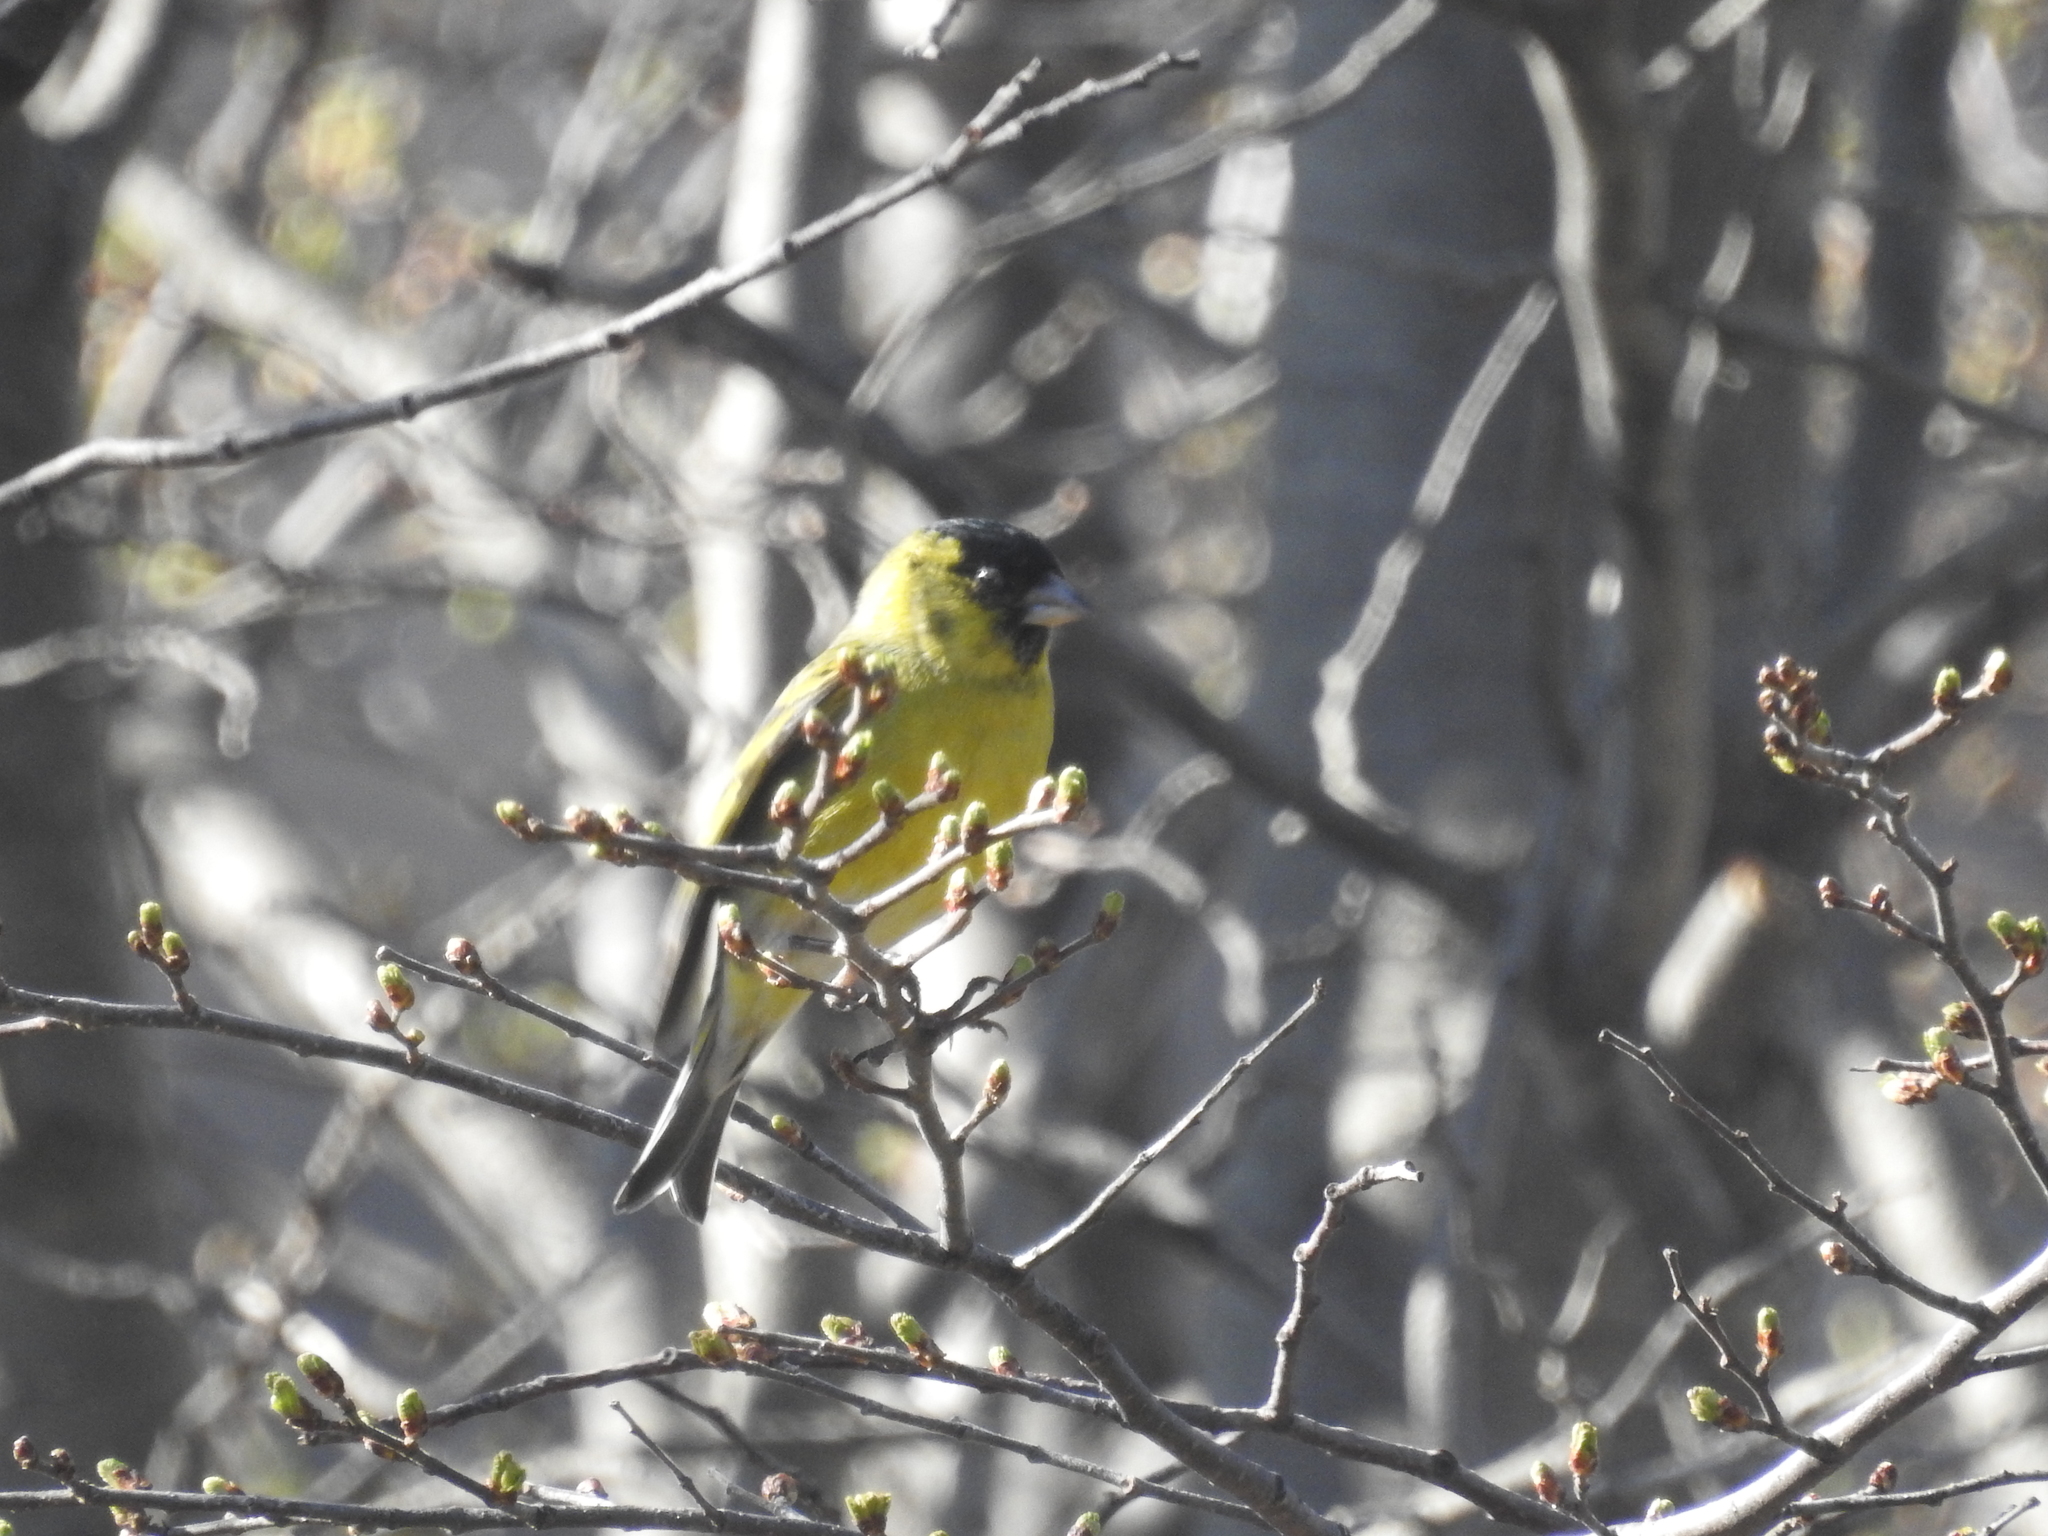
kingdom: Animalia
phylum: Chordata
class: Aves
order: Passeriformes
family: Fringillidae
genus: Spinus
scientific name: Spinus barbatus
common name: Black-chinned siskin
